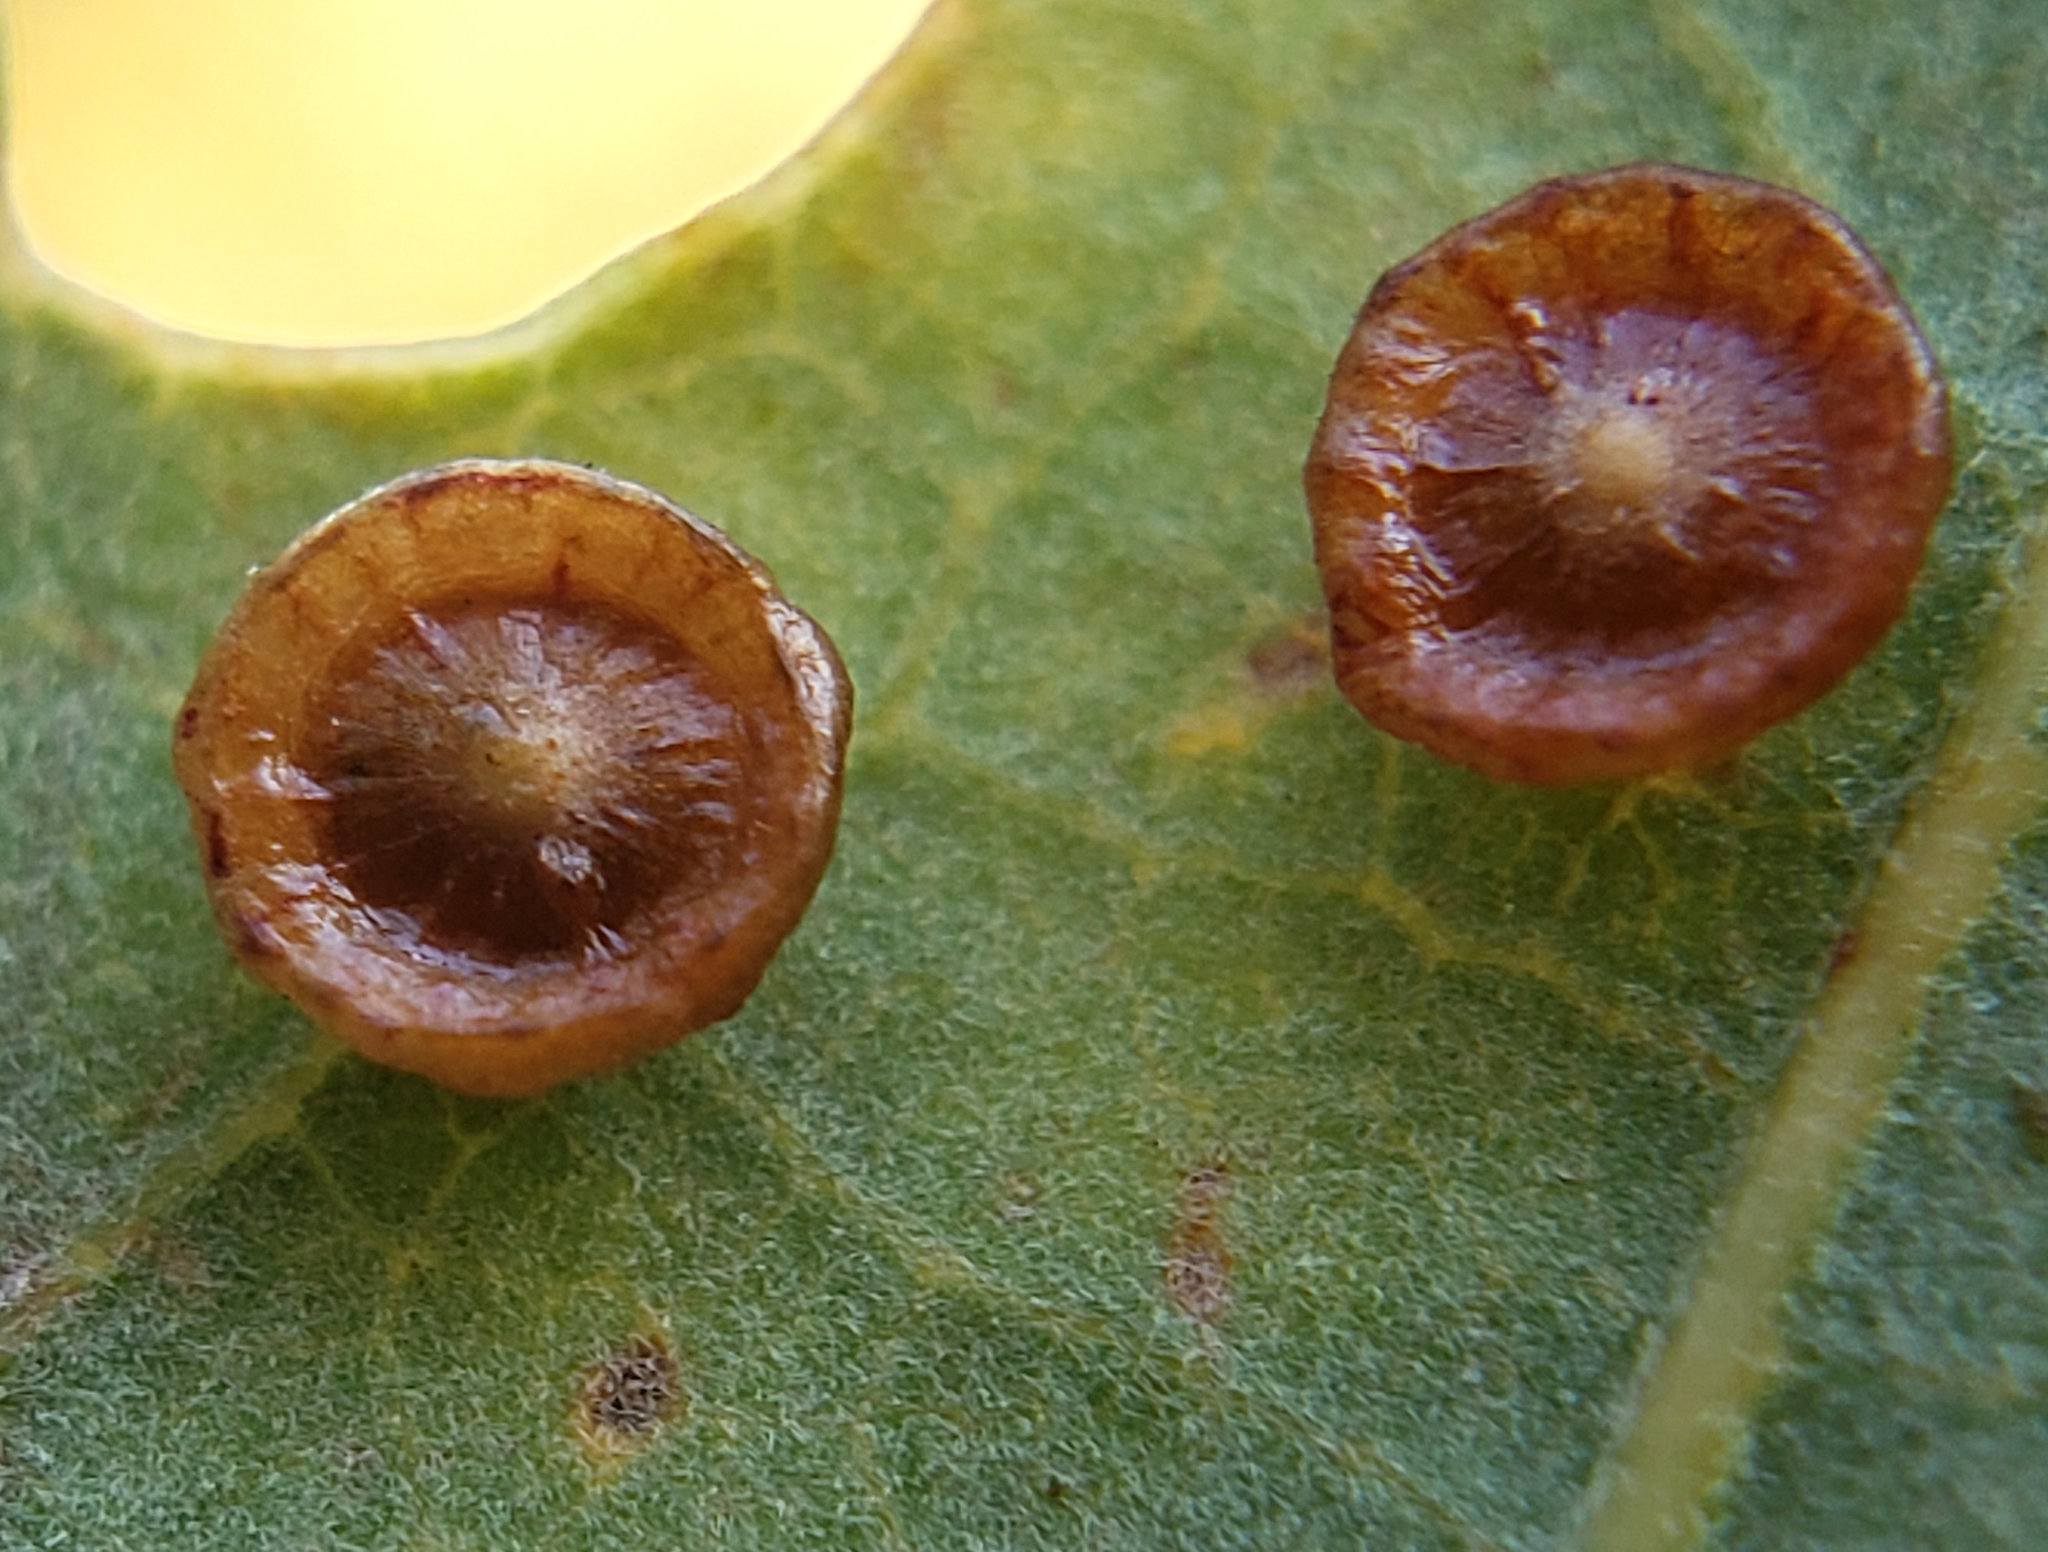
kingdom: Animalia
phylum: Arthropoda
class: Insecta
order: Hymenoptera
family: Cynipidae
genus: Andricus
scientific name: Andricus
